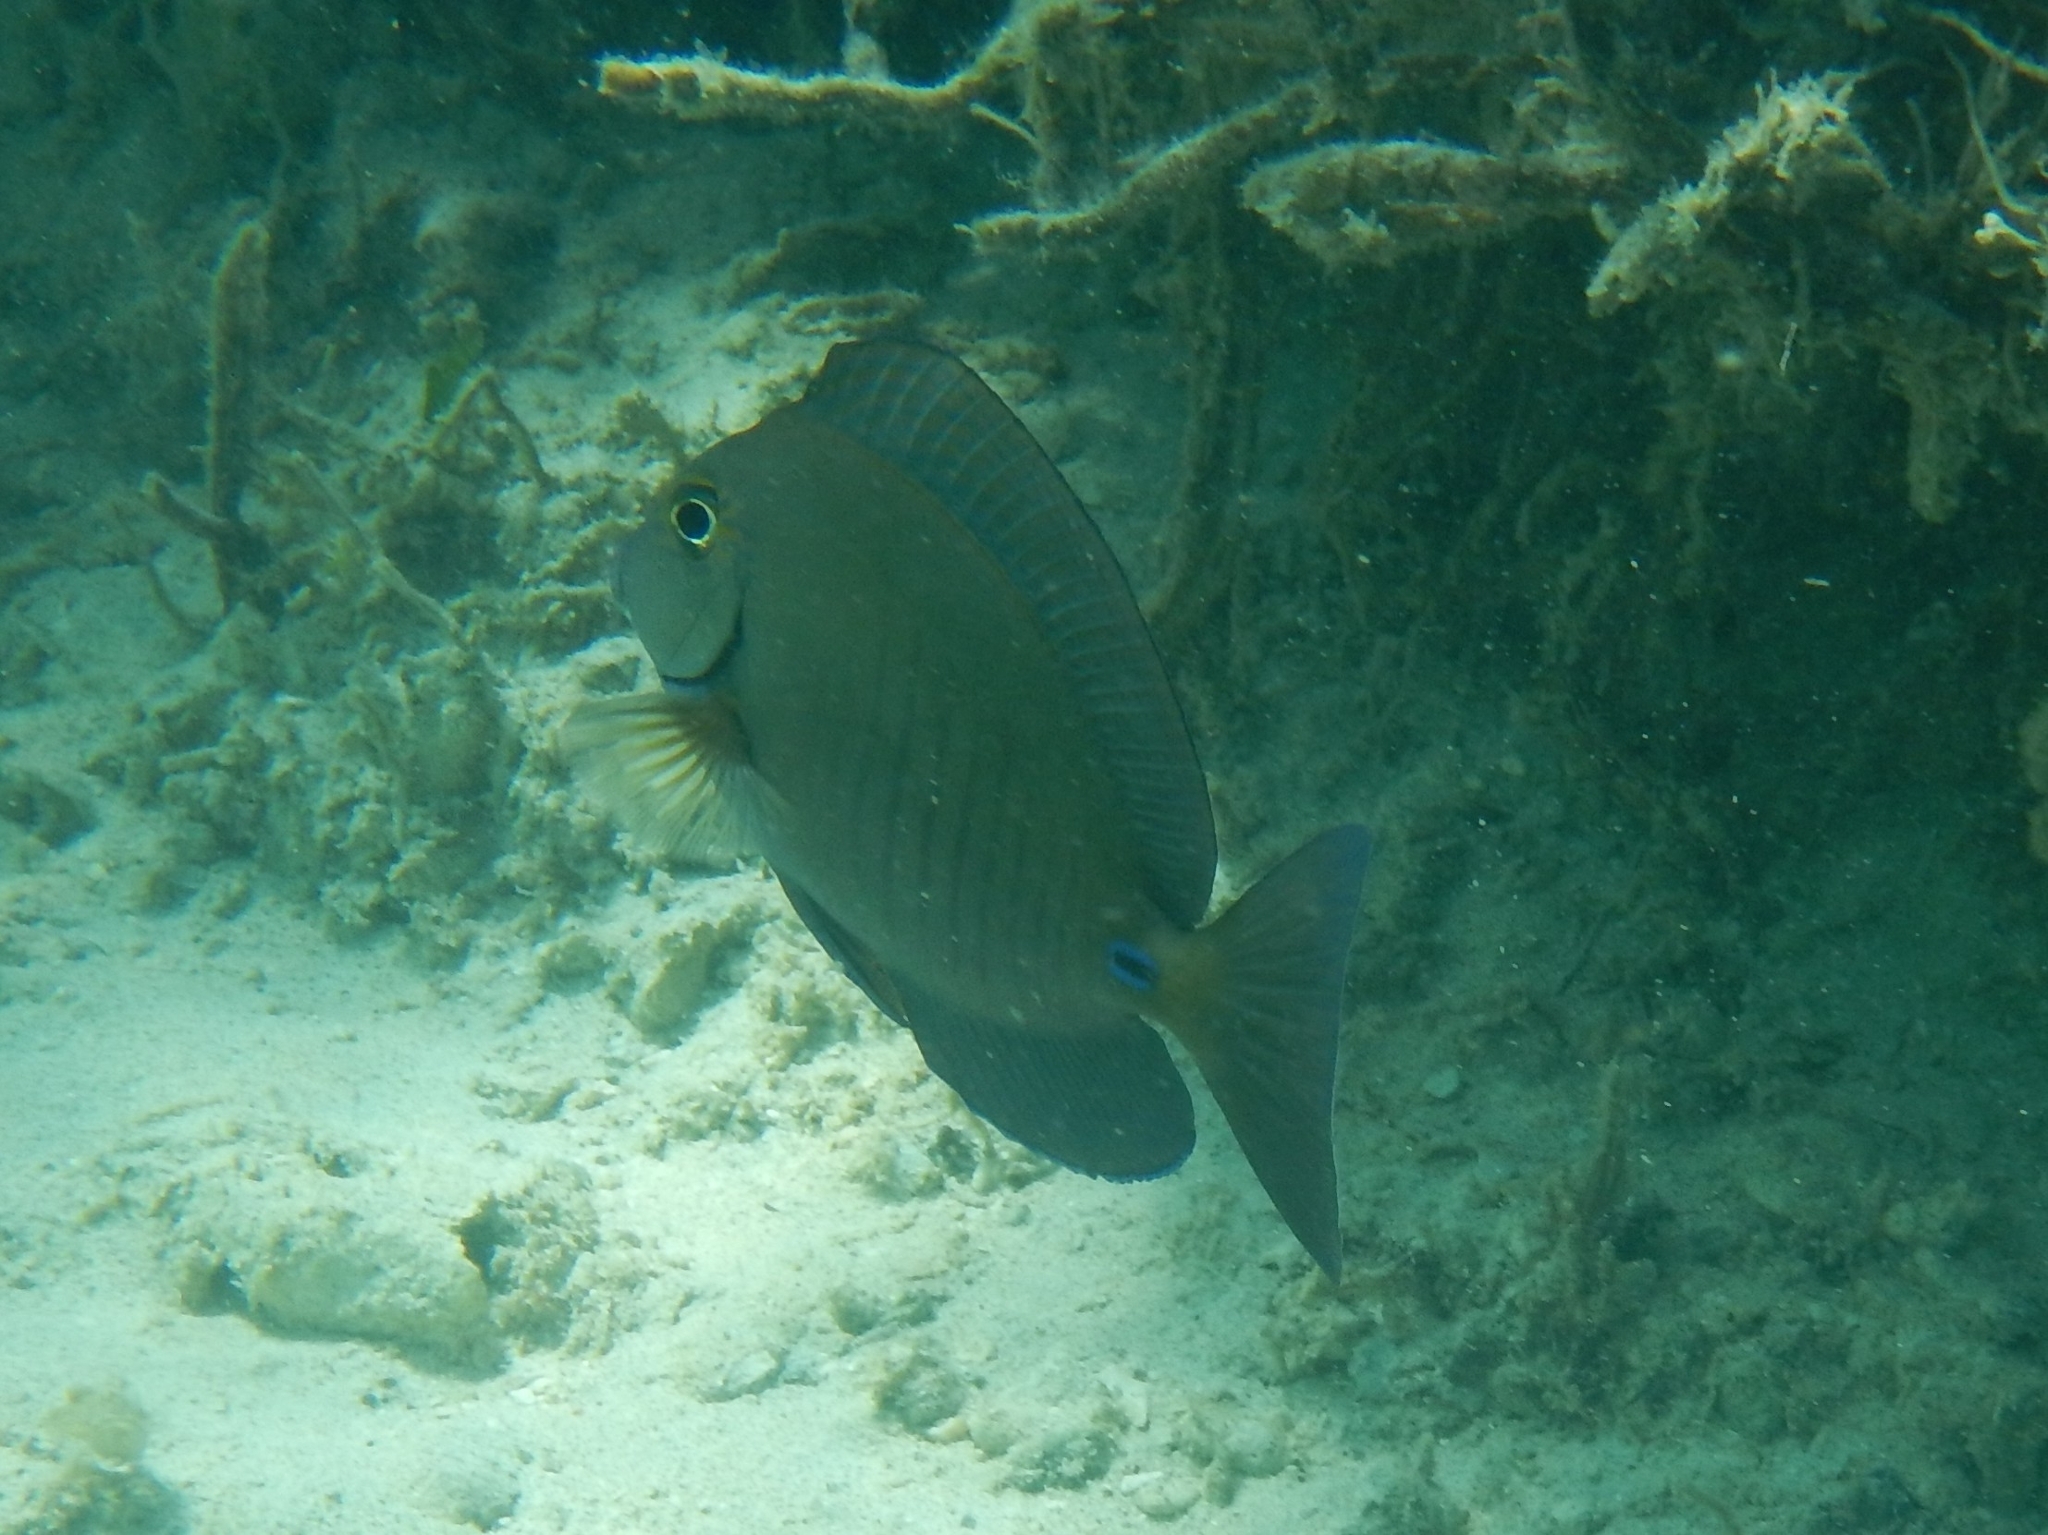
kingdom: Animalia
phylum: Chordata
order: Perciformes
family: Acanthuridae
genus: Acanthurus
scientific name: Acanthurus chirurgus
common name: Doctorfish
